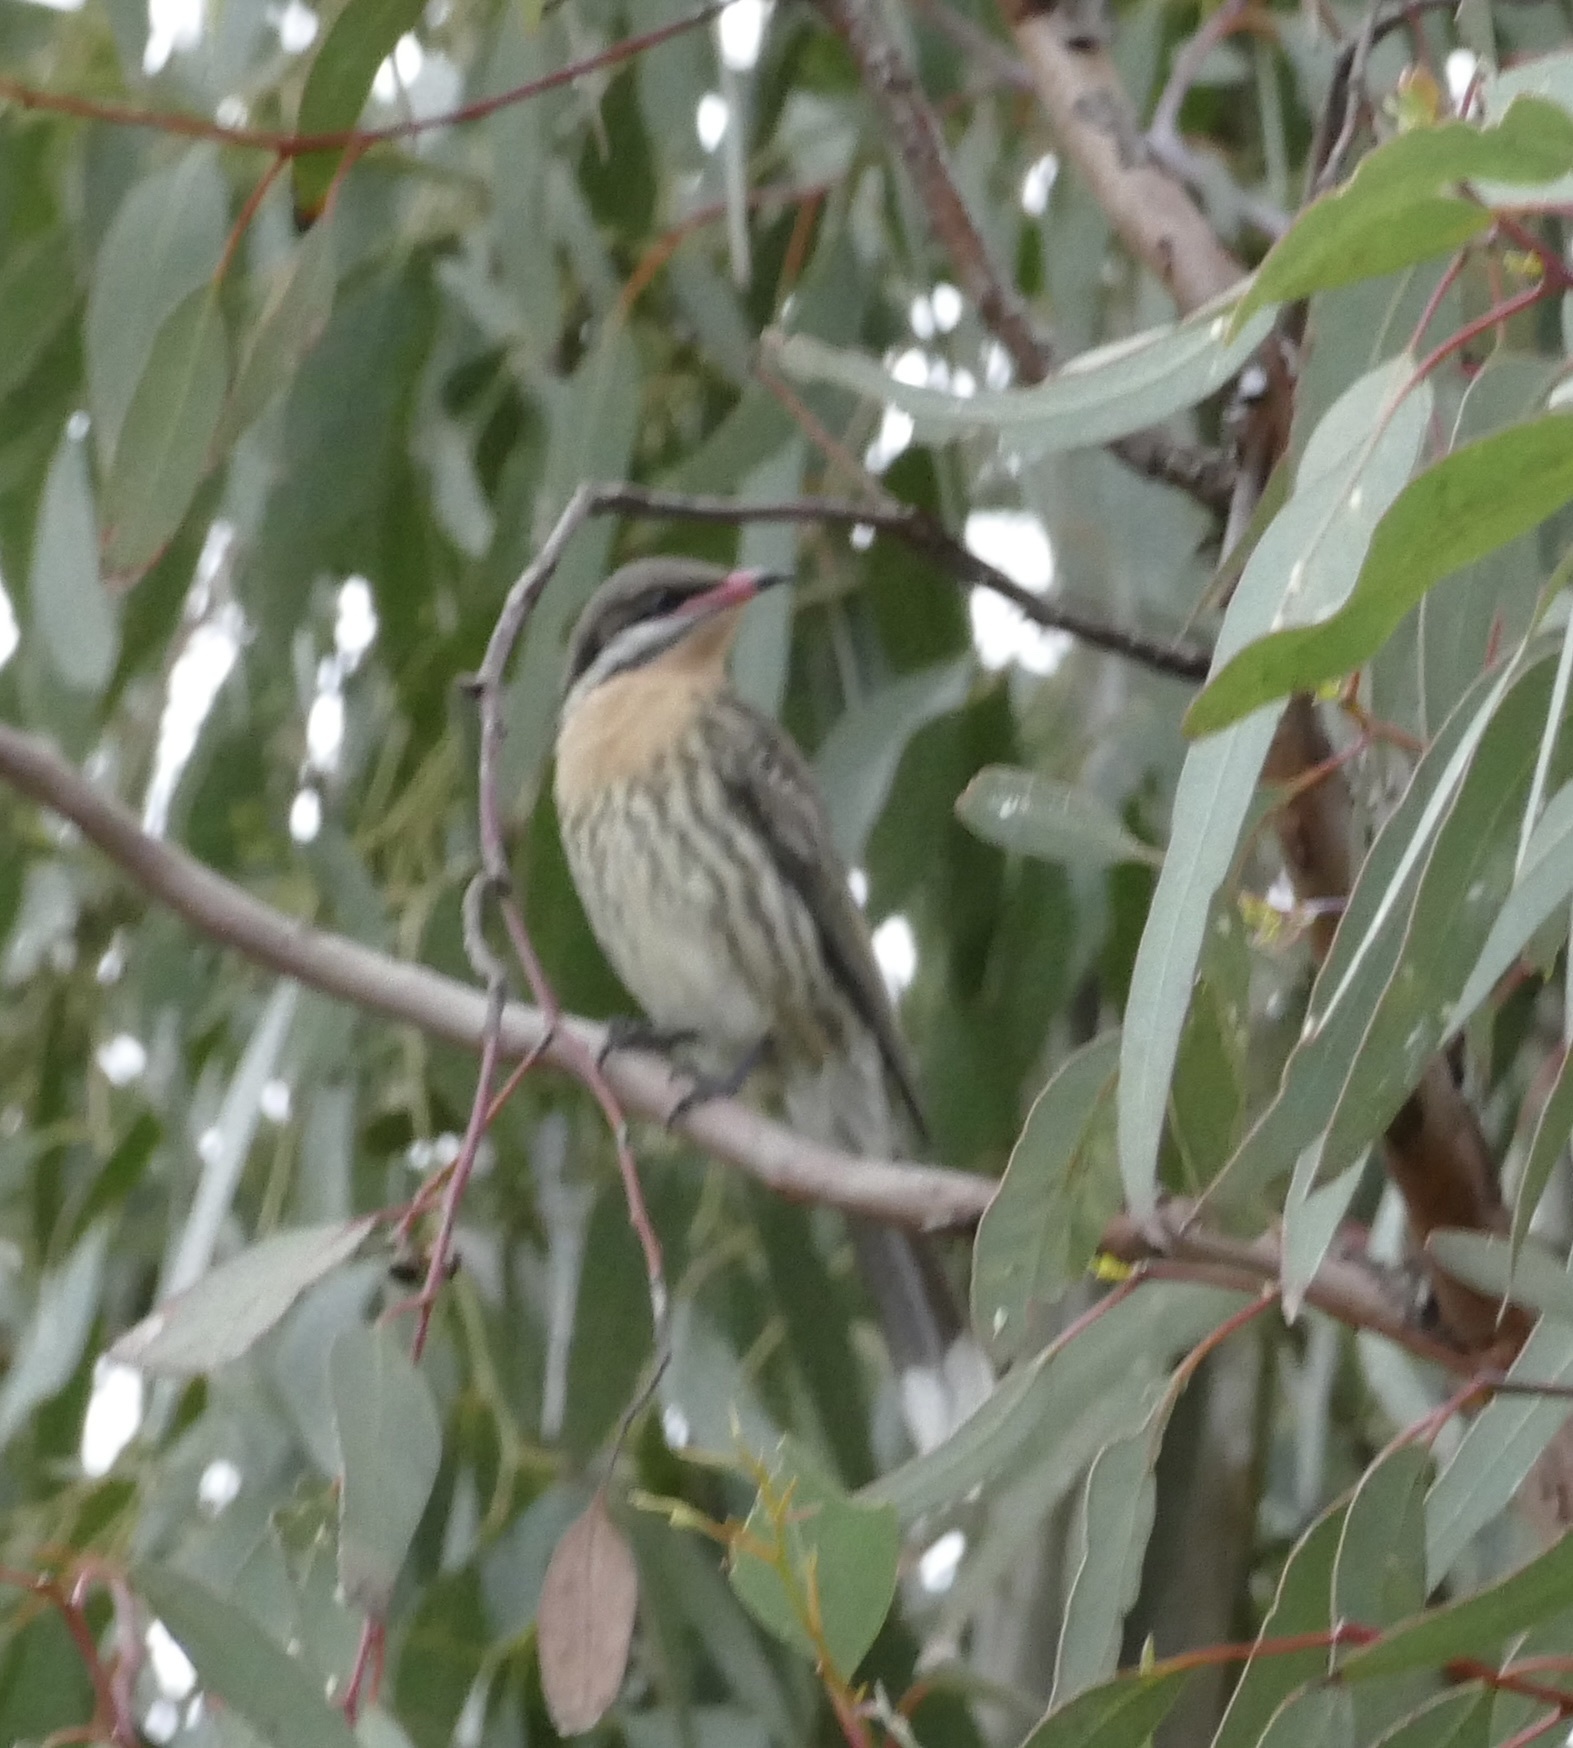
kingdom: Animalia
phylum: Chordata
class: Aves
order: Passeriformes
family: Meliphagidae
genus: Acanthagenys
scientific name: Acanthagenys rufogularis
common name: Spiny-cheeked honeyeater
